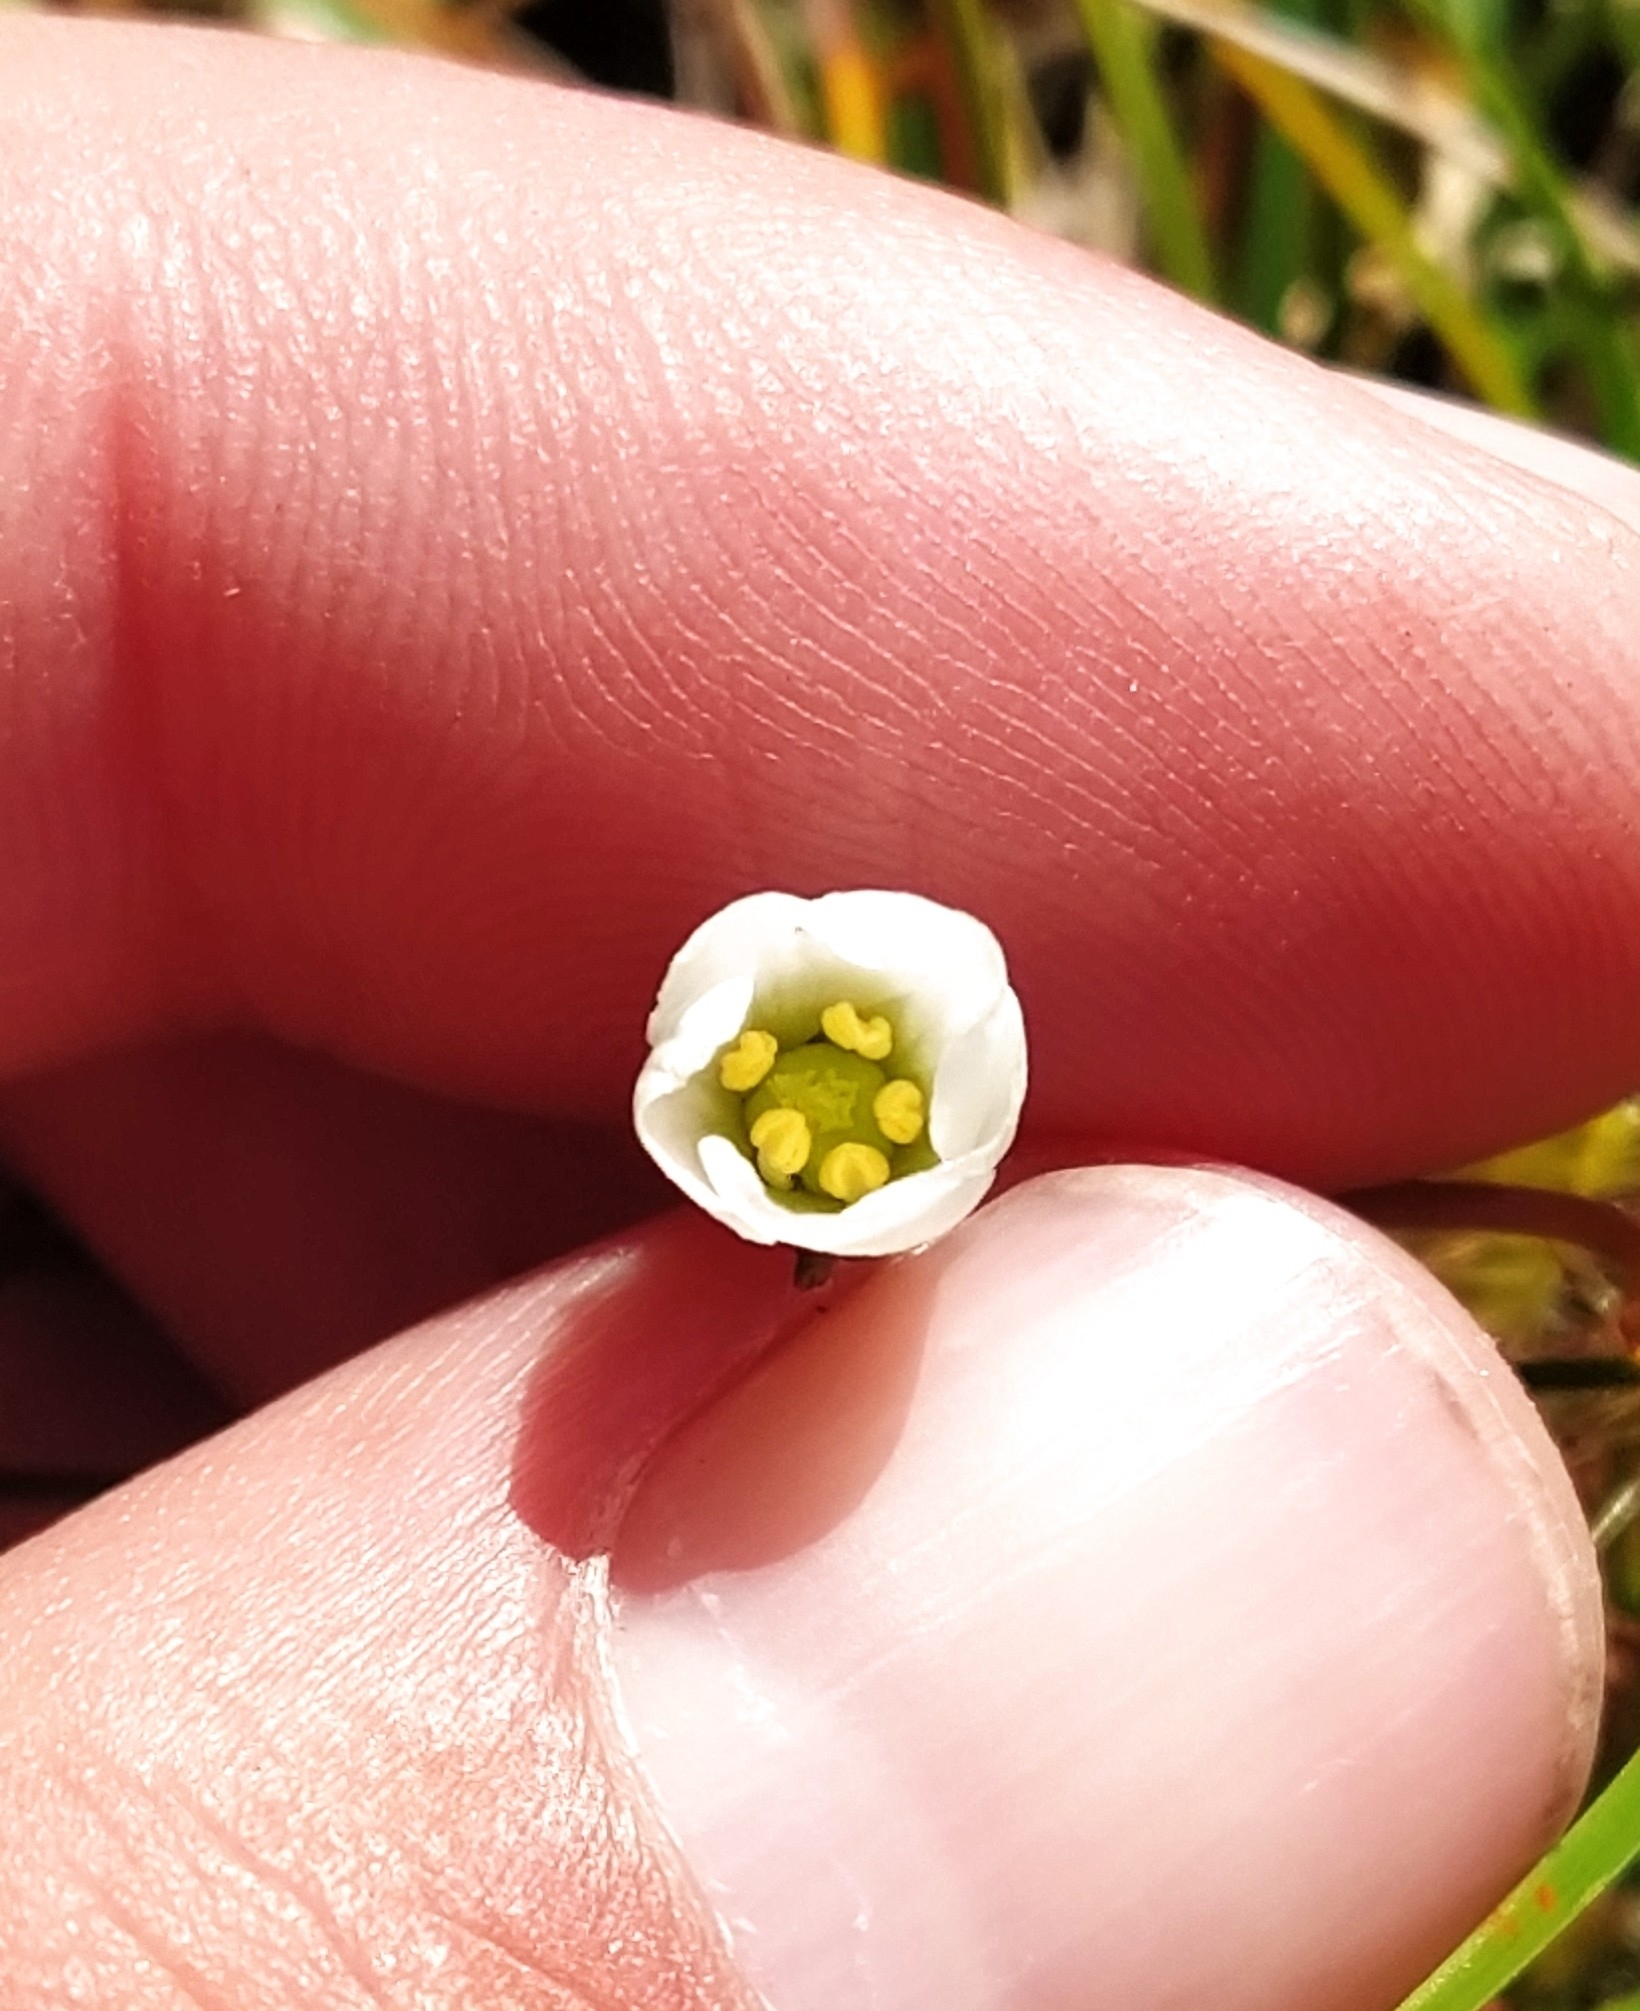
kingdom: Plantae
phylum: Tracheophyta
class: Magnoliopsida
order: Caryophyllales
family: Droseraceae
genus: Drosera
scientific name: Drosera stenopetala
